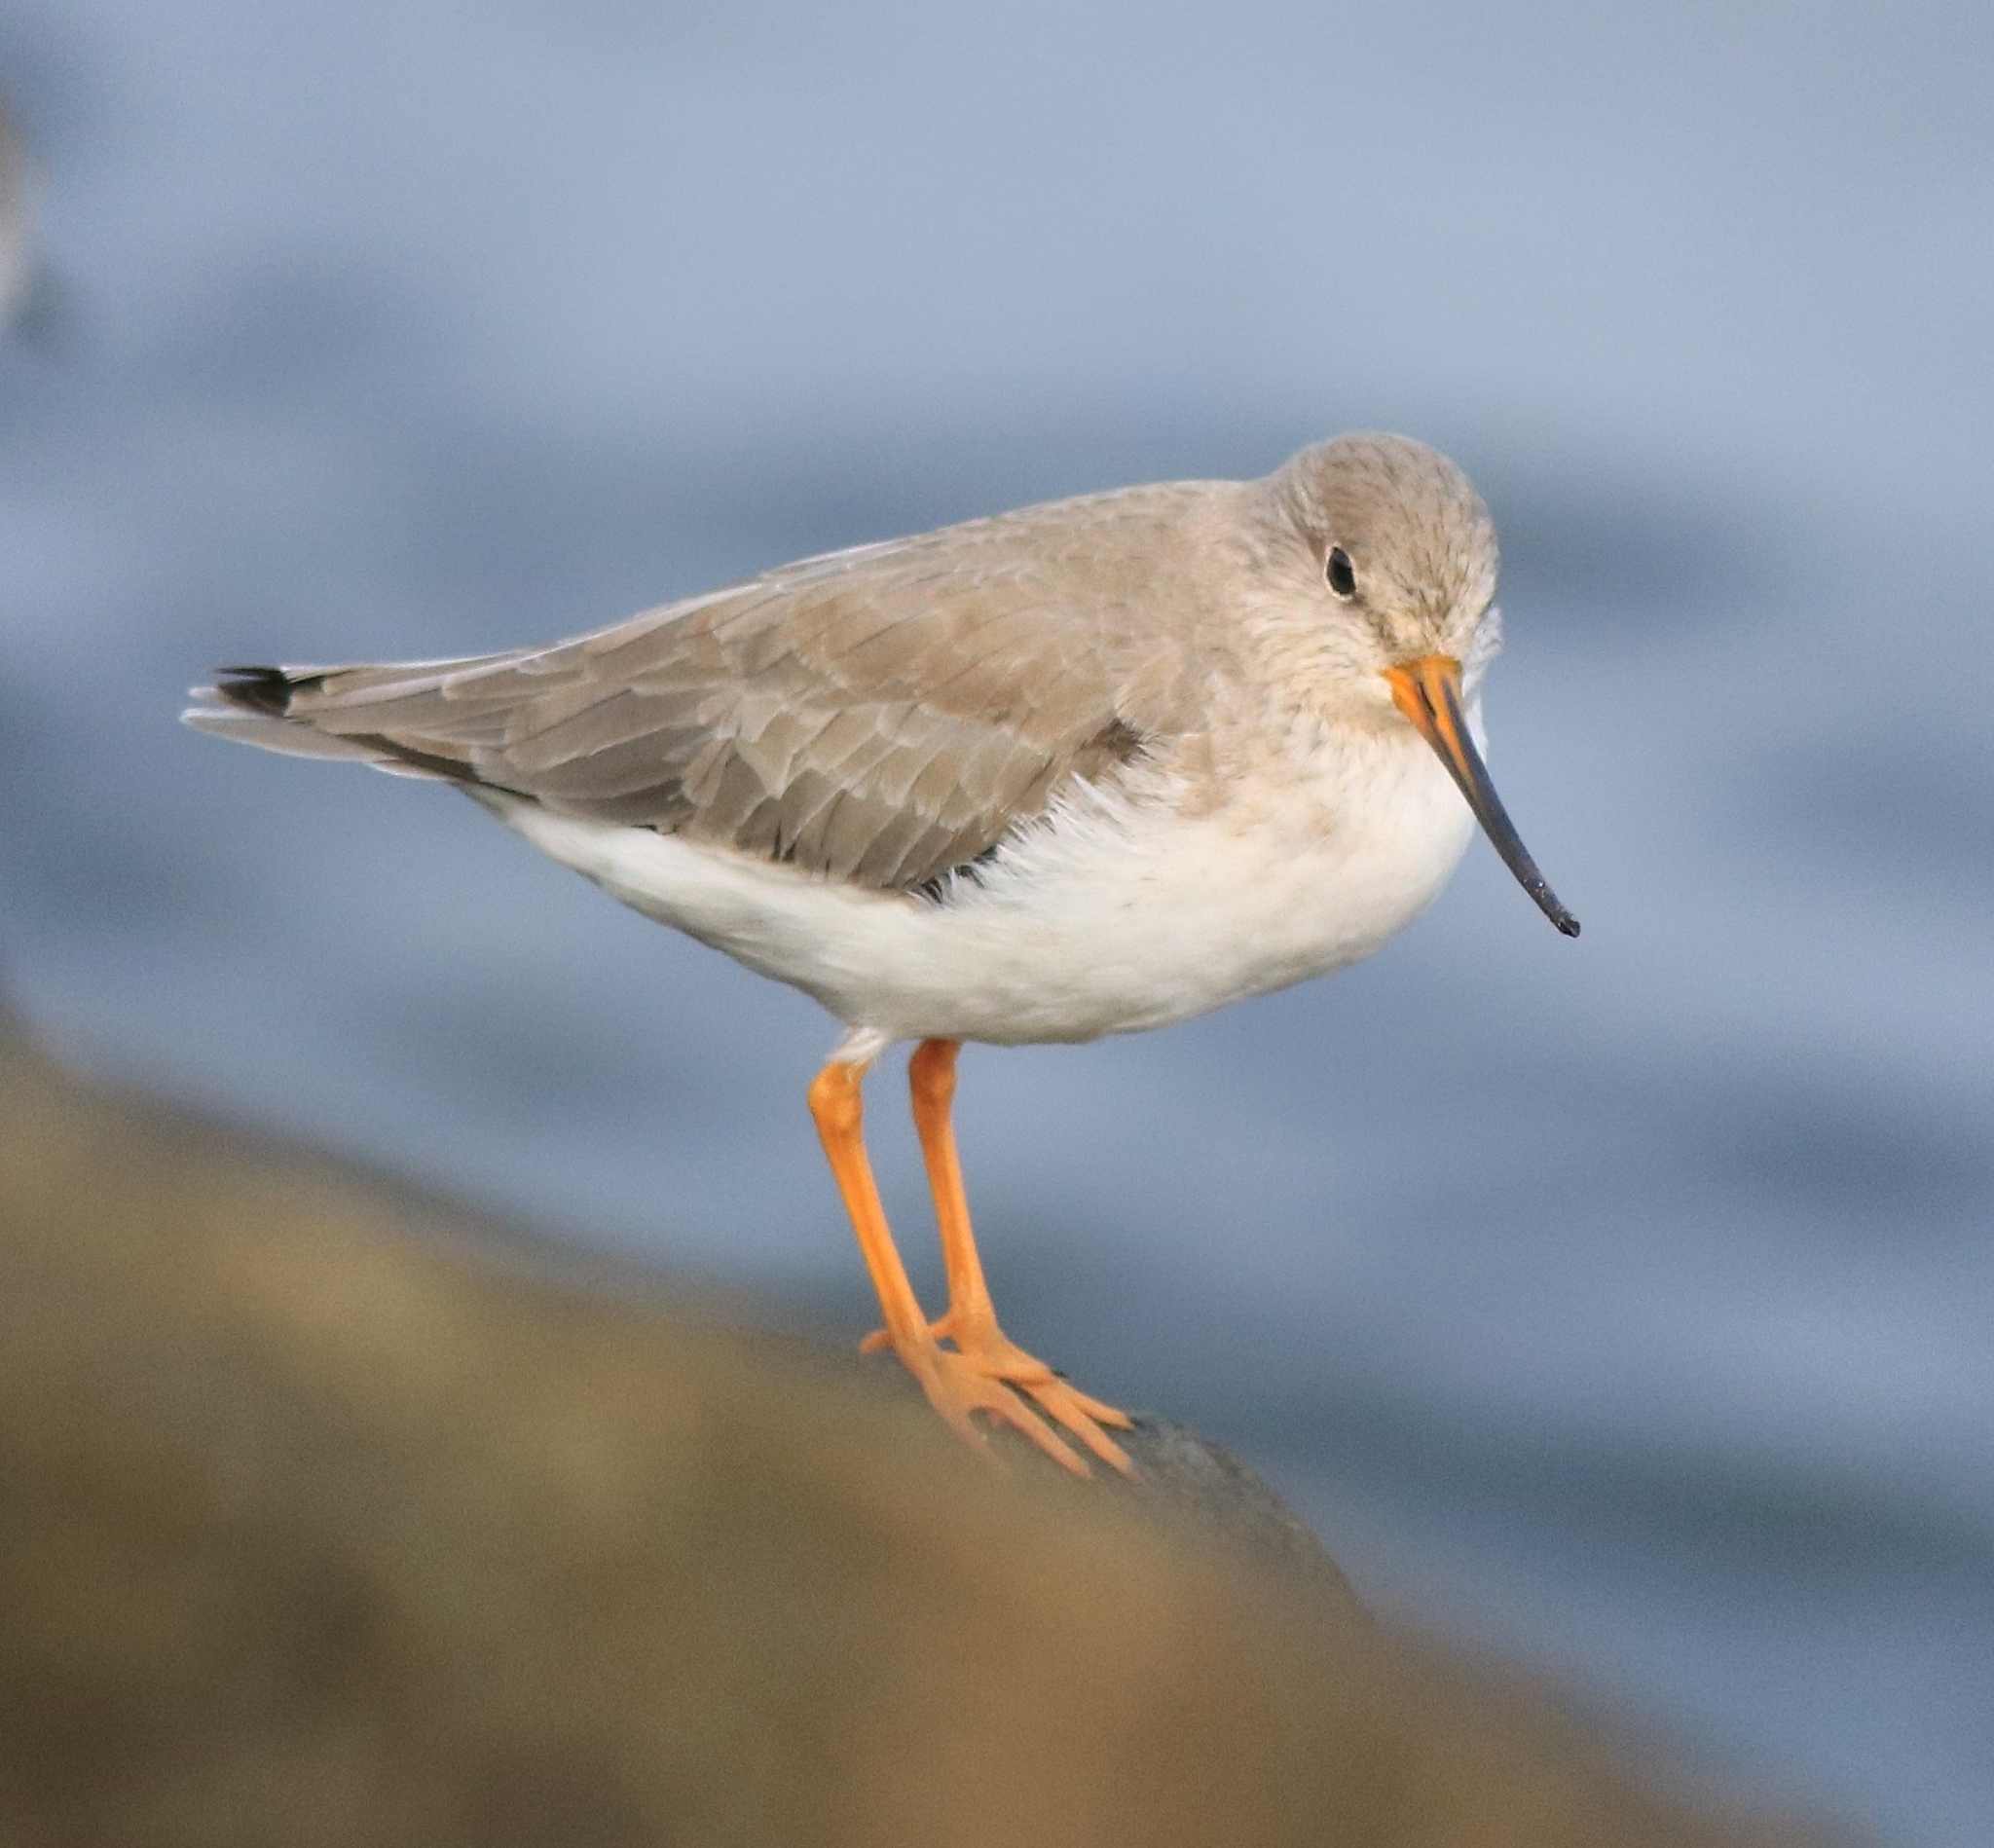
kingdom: Animalia
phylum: Chordata
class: Aves
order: Charadriiformes
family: Scolopacidae
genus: Xenus
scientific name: Xenus cinereus
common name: Terek sandpiper
